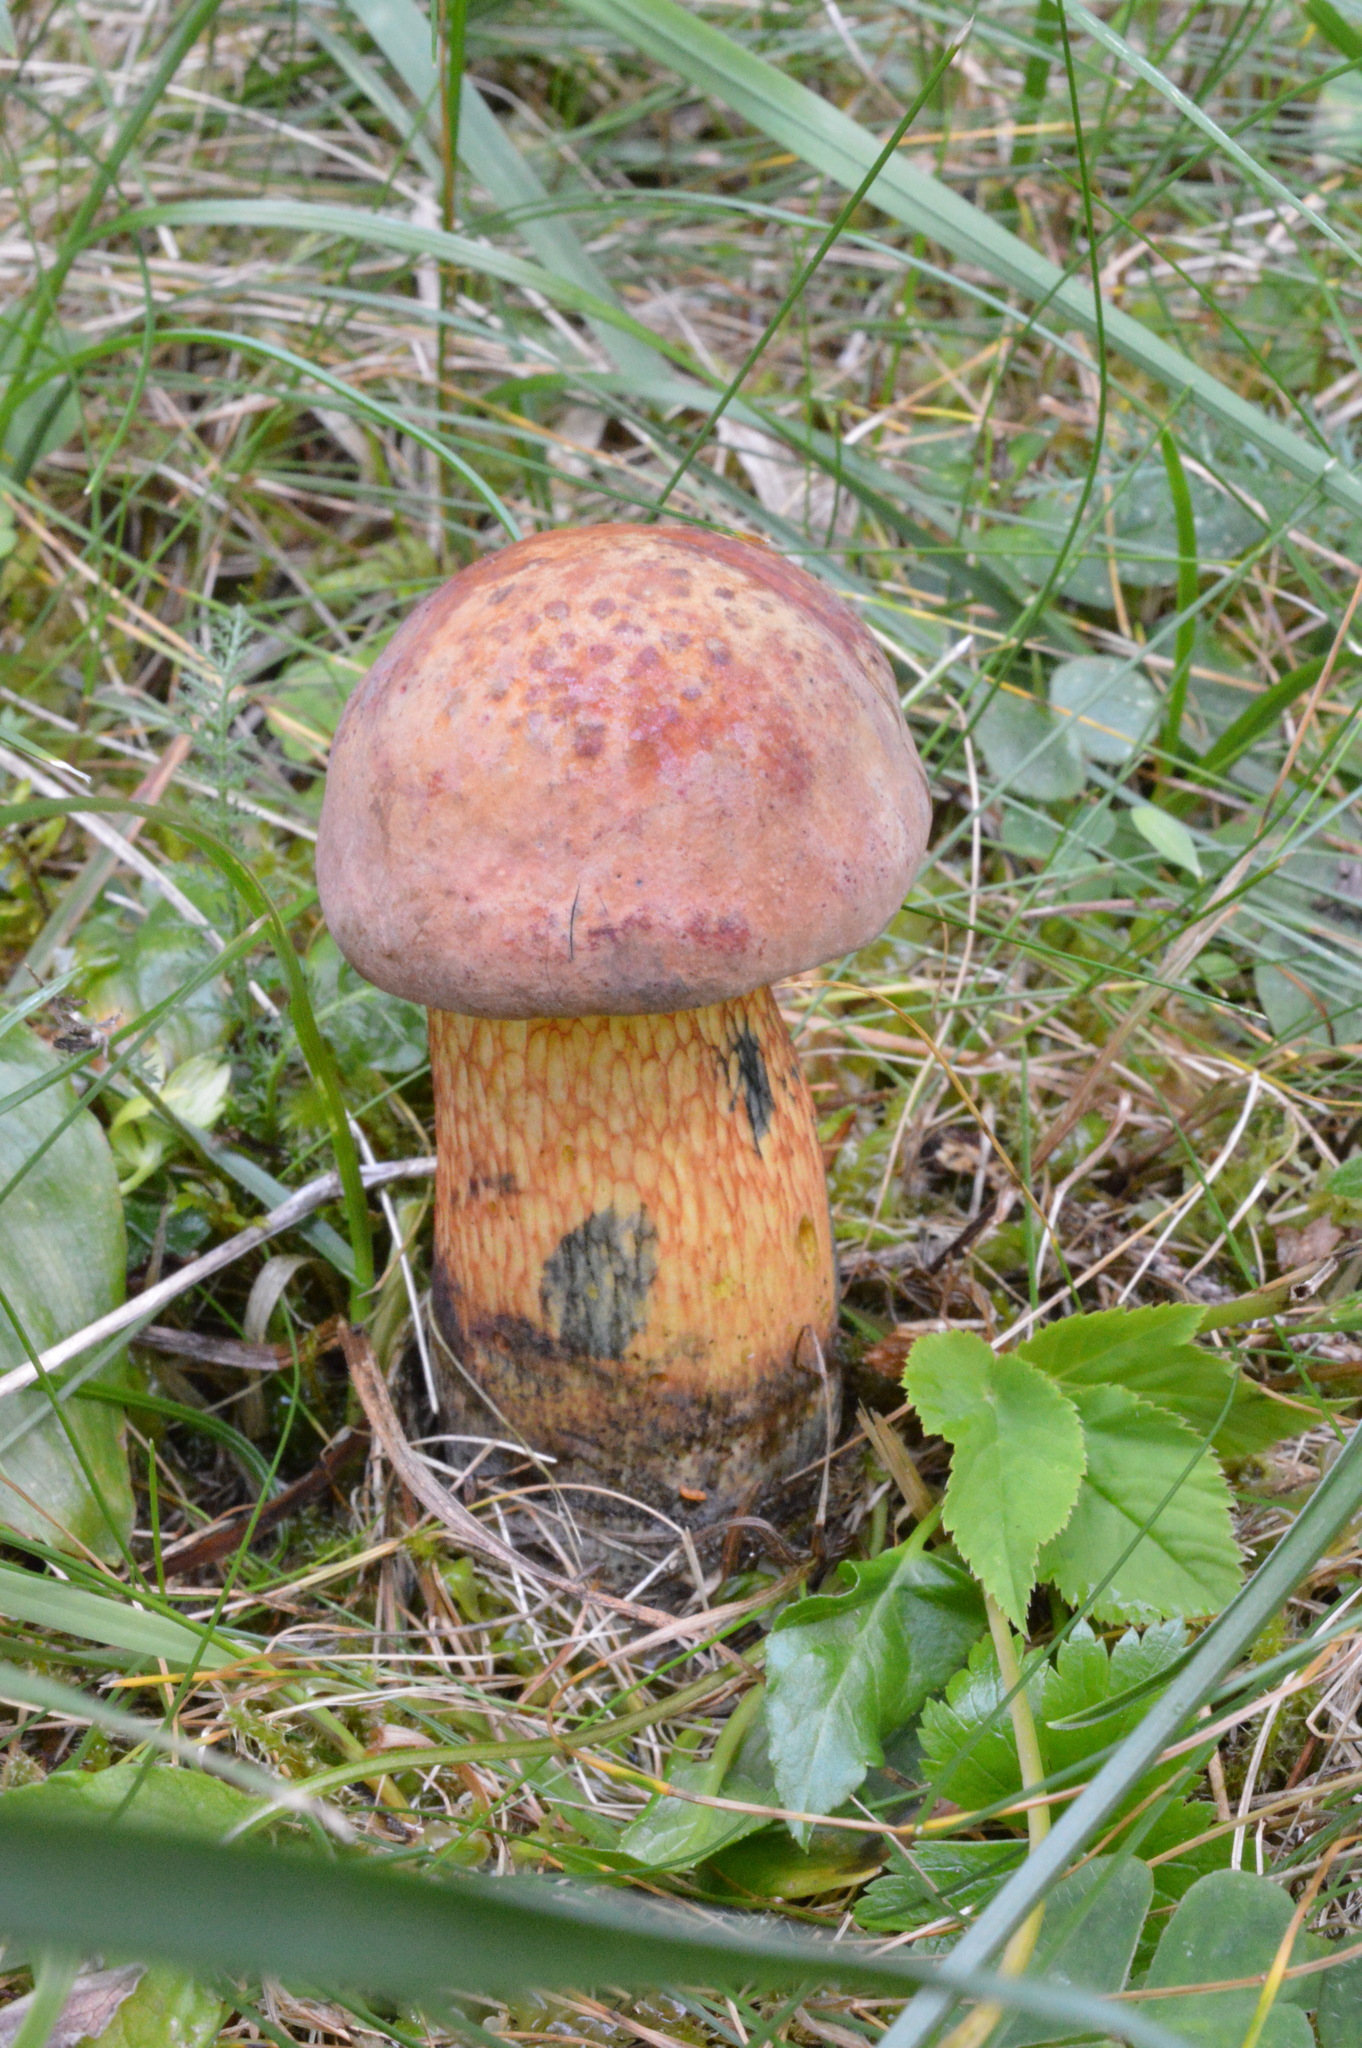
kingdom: Fungi
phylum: Basidiomycota
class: Agaricomycetes
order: Boletales
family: Boletaceae
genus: Suillellus
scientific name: Suillellus luridus
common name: Lurid bolete
